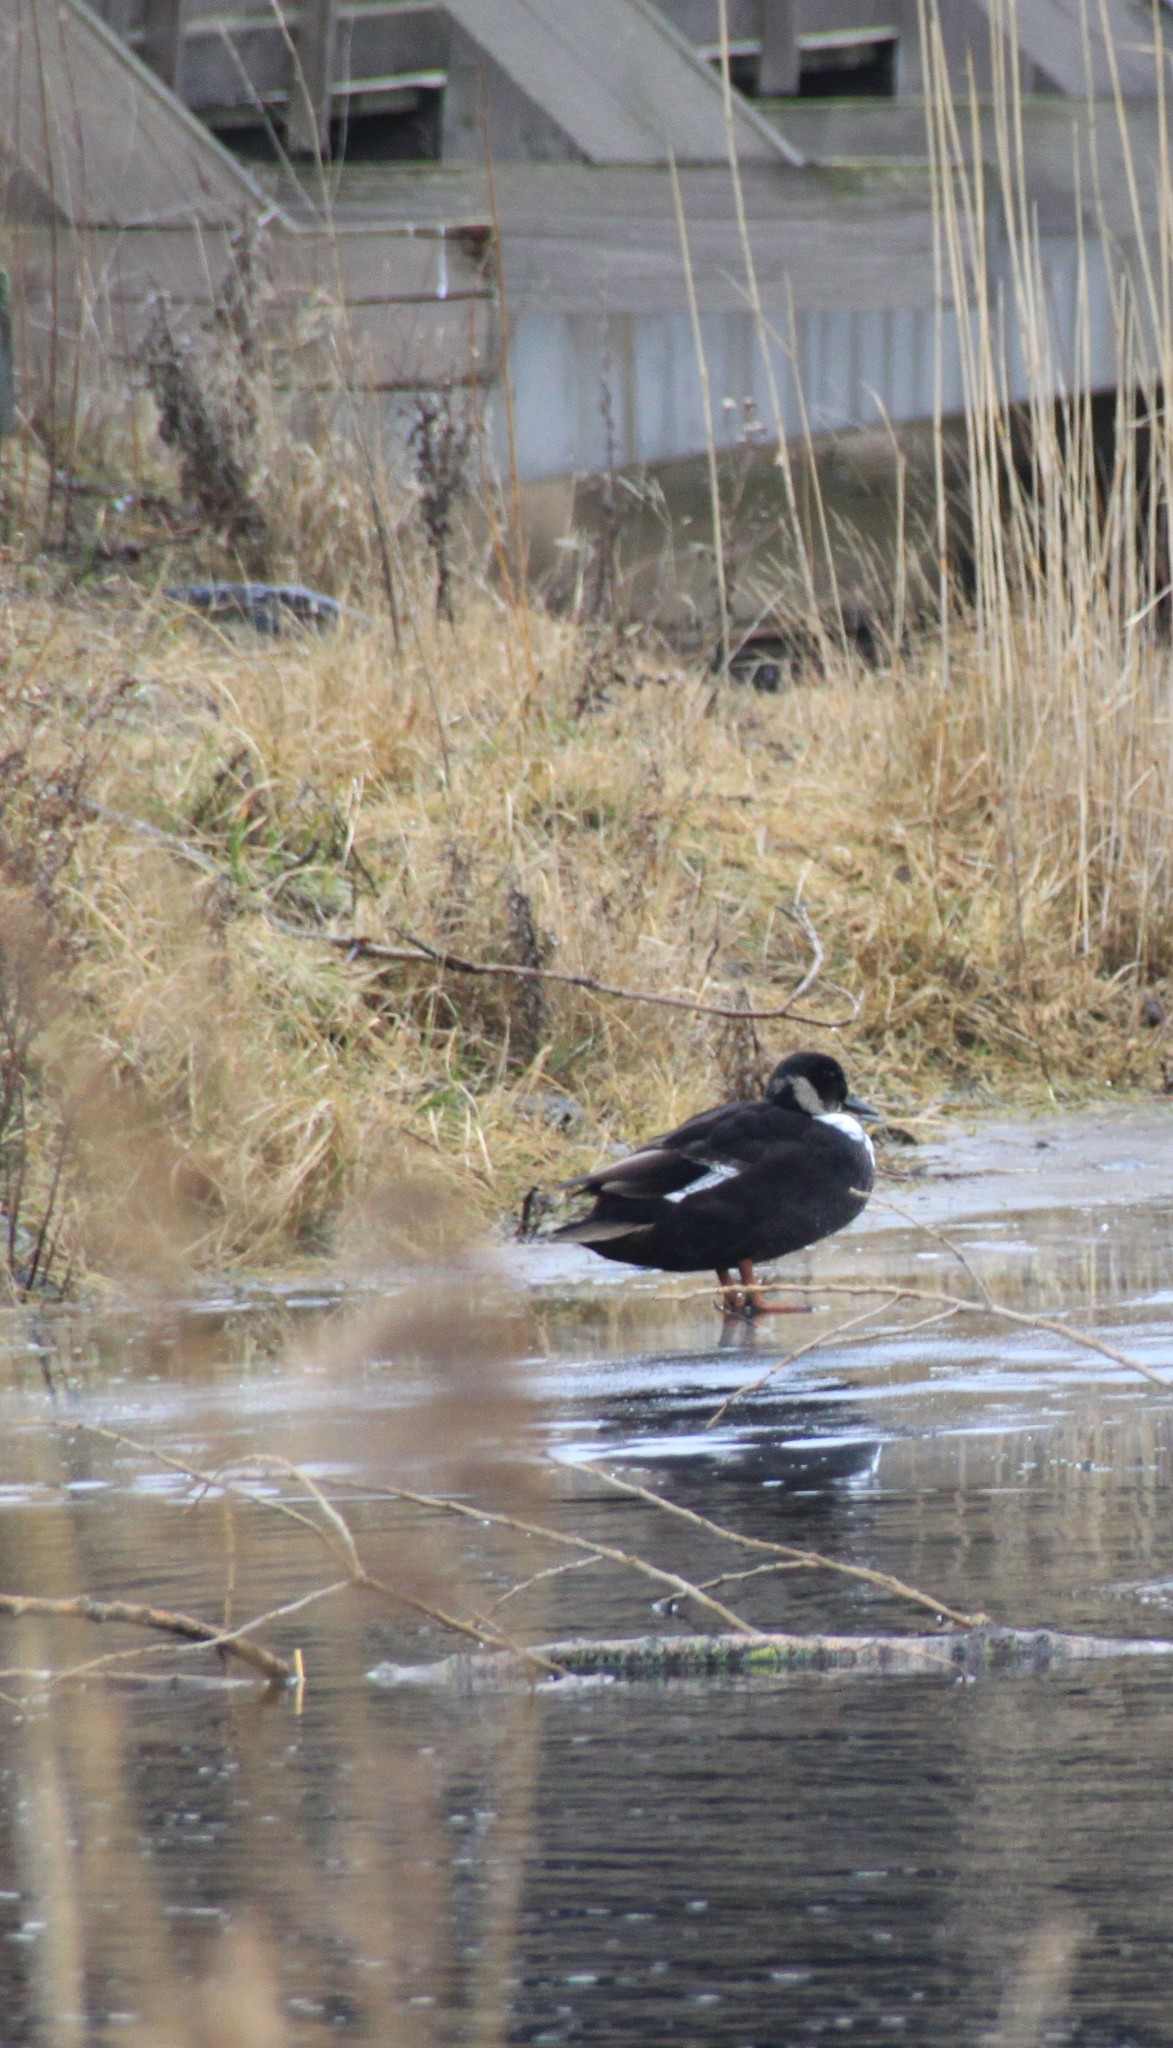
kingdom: Animalia
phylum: Chordata
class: Aves
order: Anseriformes
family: Anatidae
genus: Anas
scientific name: Anas platyrhynchos
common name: Mallard
